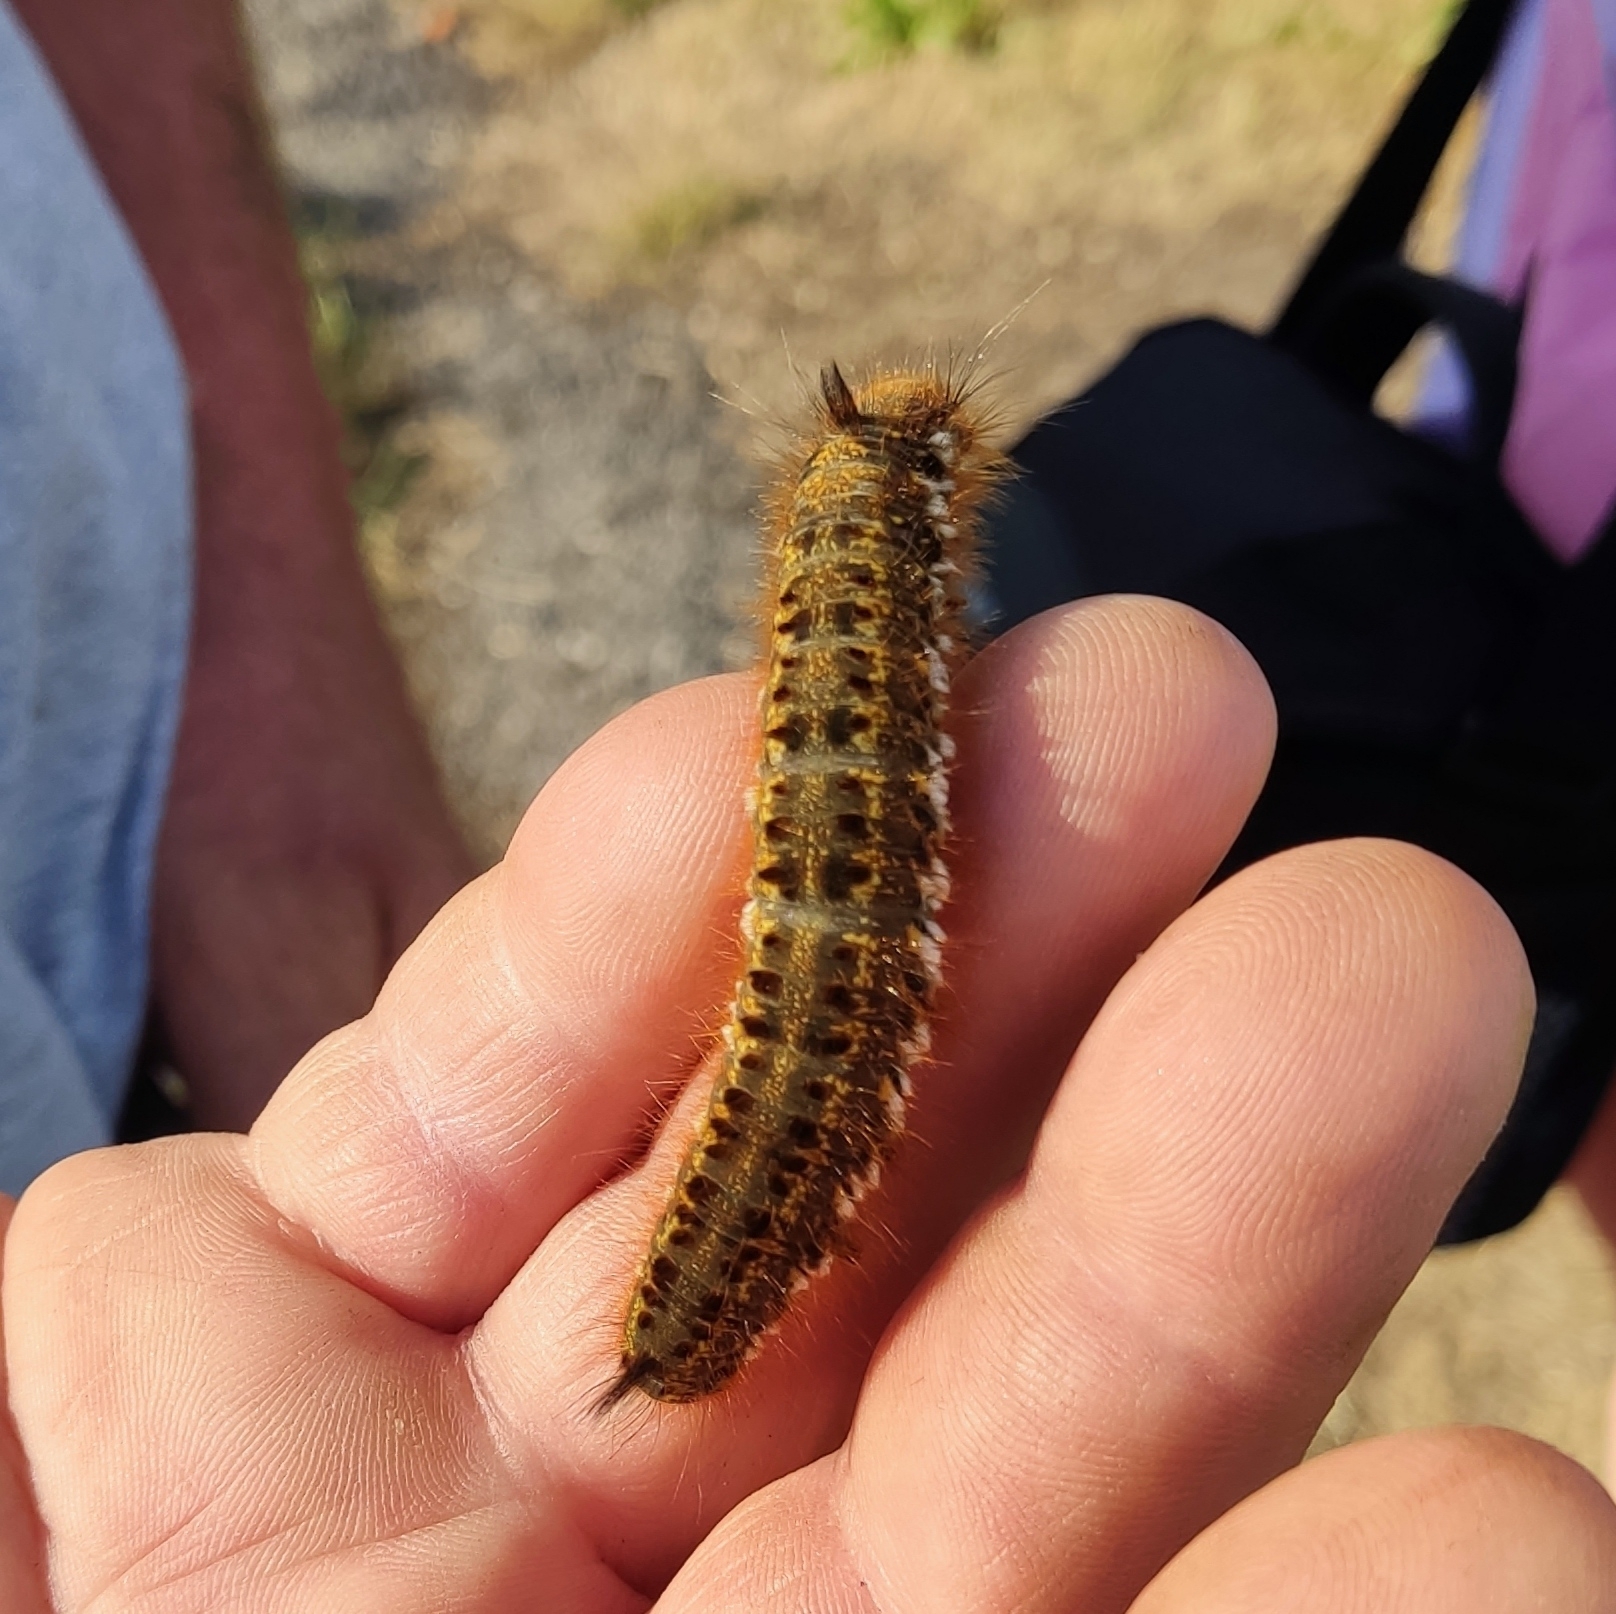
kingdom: Animalia
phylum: Arthropoda
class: Insecta
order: Lepidoptera
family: Lasiocampidae
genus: Euthrix
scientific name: Euthrix potatoria
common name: Drinker
